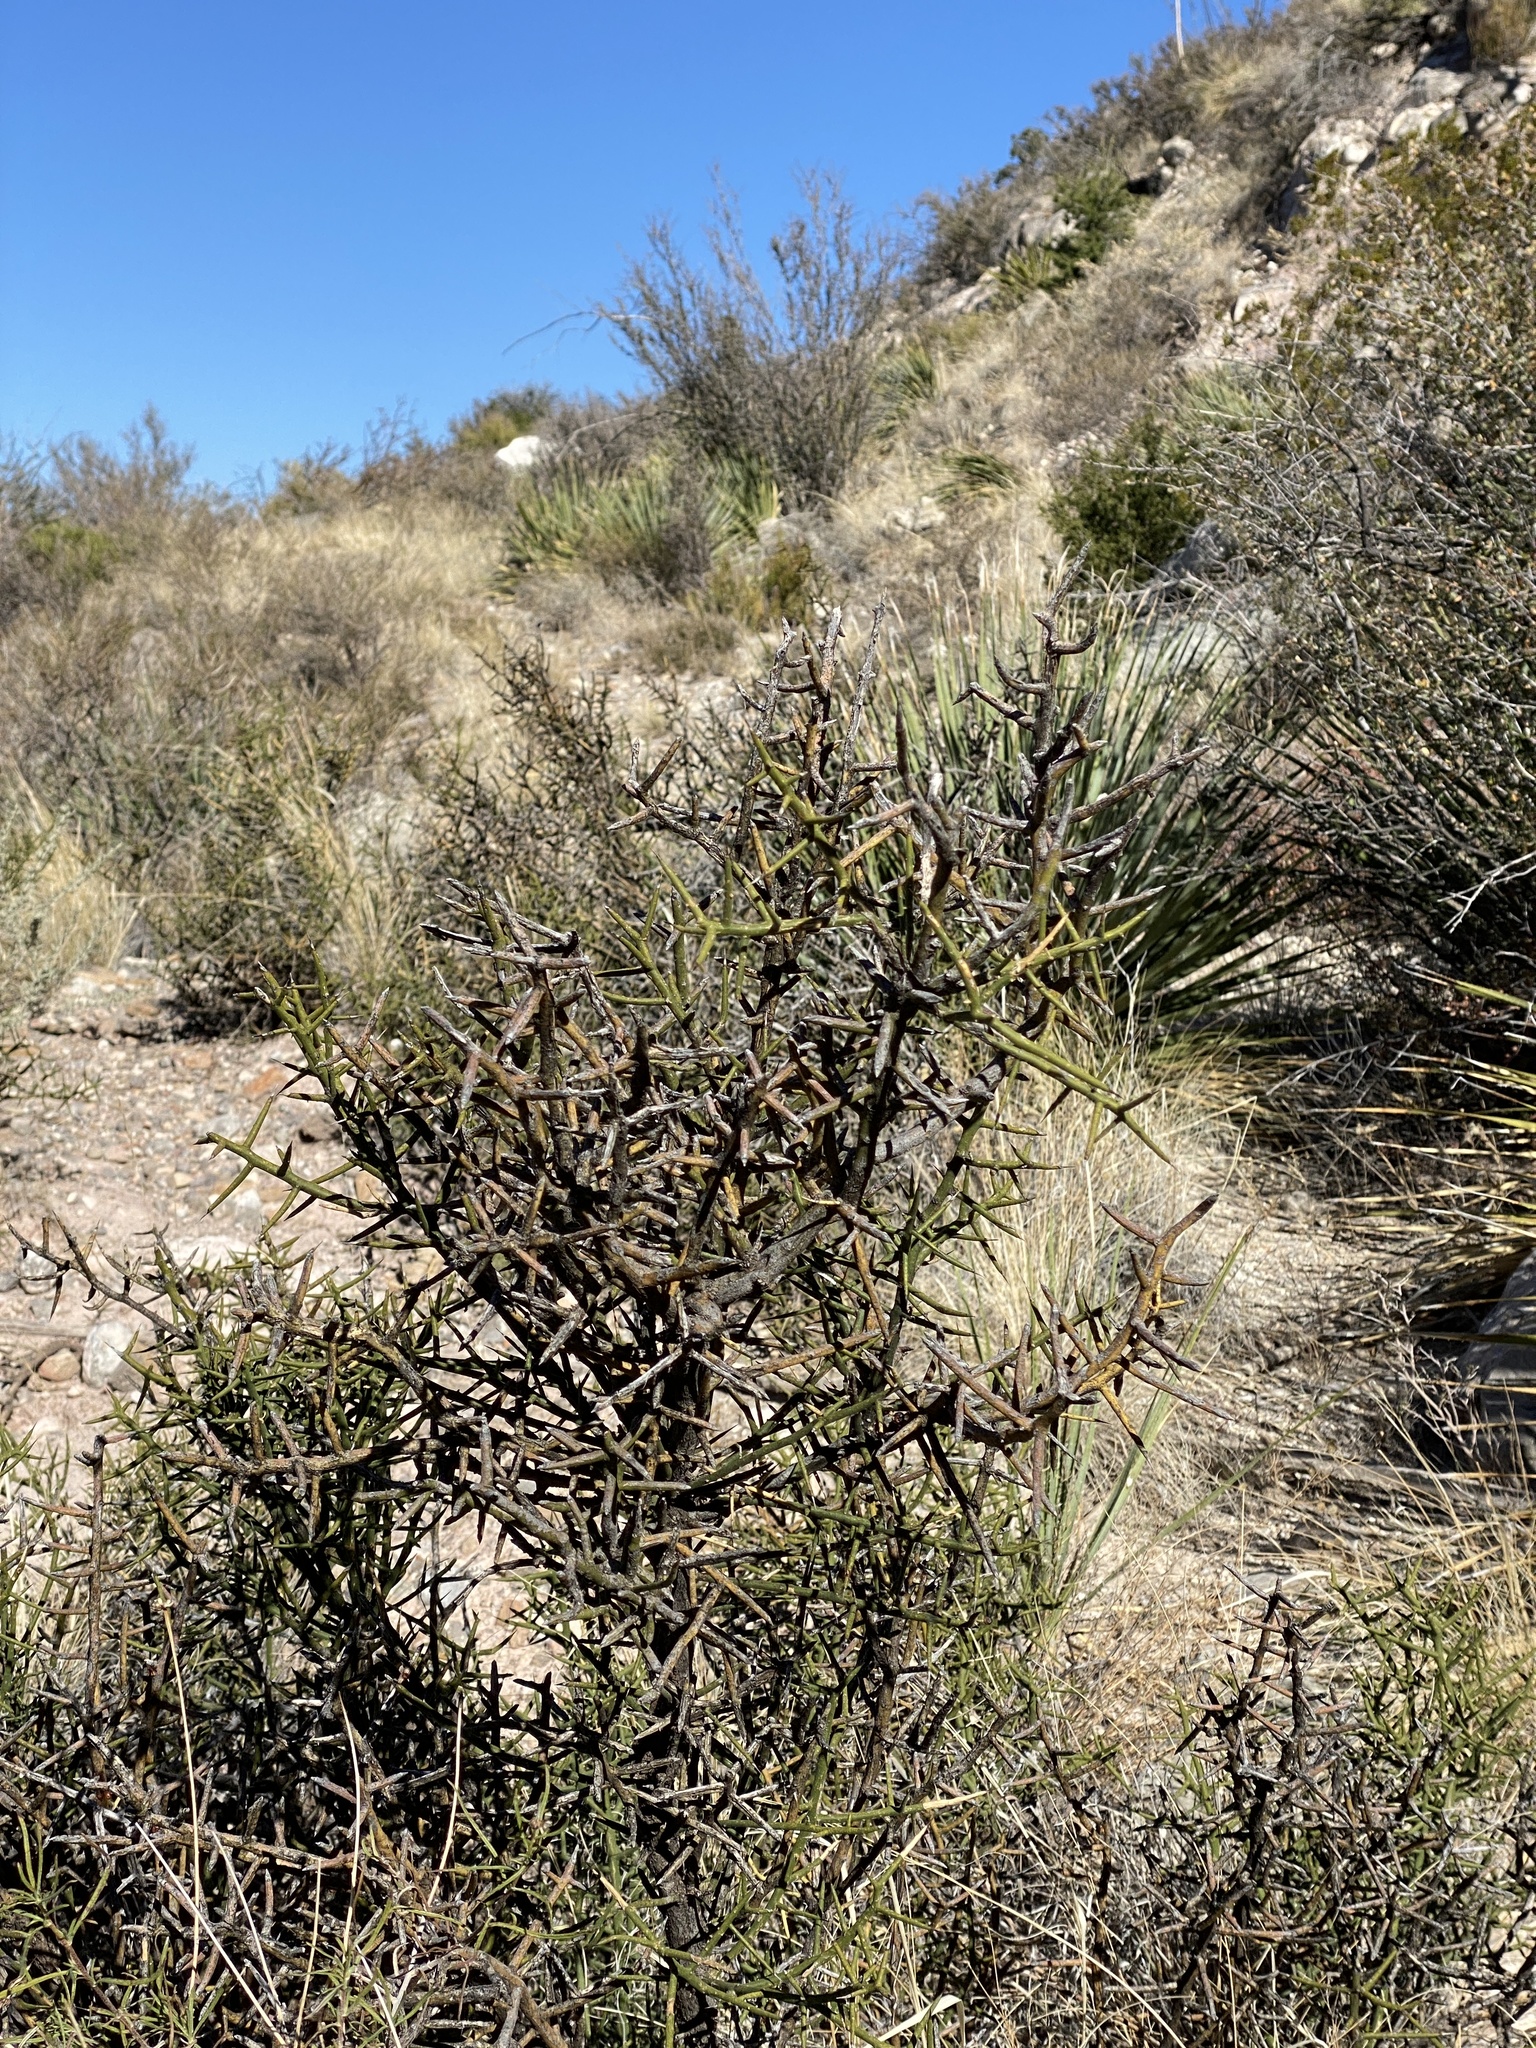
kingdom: Plantae
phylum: Tracheophyta
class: Magnoliopsida
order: Brassicales
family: Koeberliniaceae
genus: Koeberlinia
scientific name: Koeberlinia spinosa
